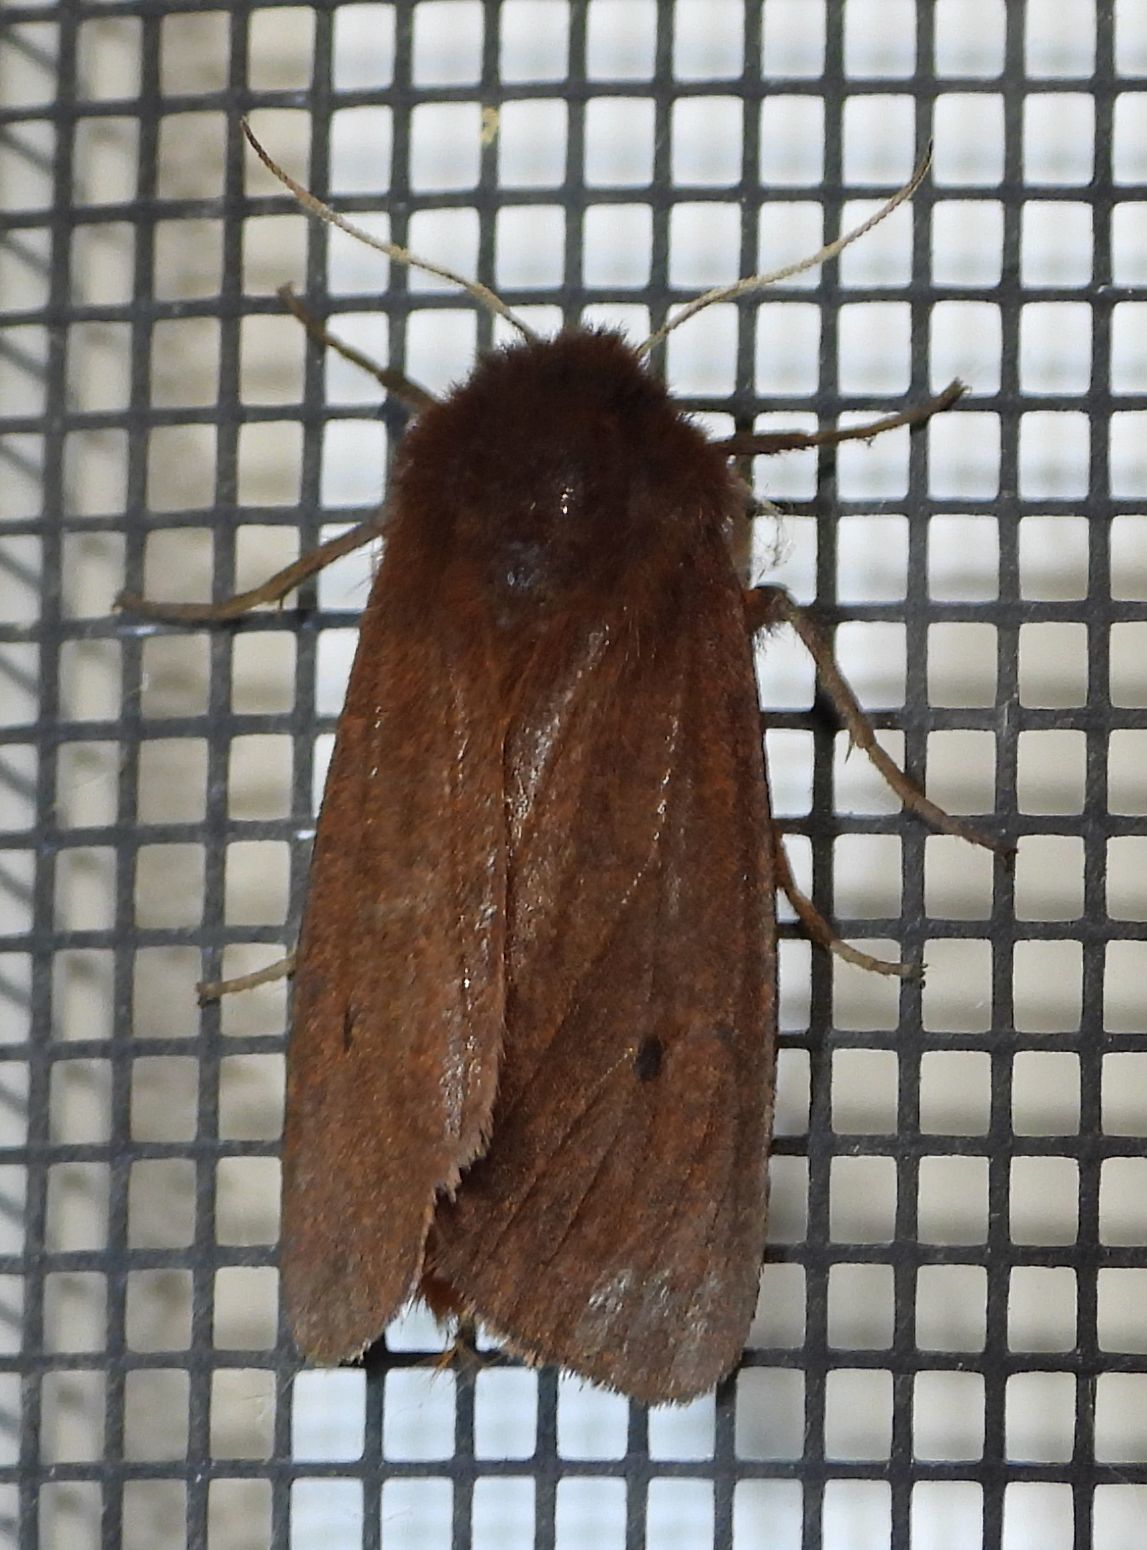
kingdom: Animalia
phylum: Arthropoda
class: Insecta
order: Lepidoptera
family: Erebidae
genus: Phragmatobia
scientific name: Phragmatobia fuliginosa
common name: Ruby tiger
